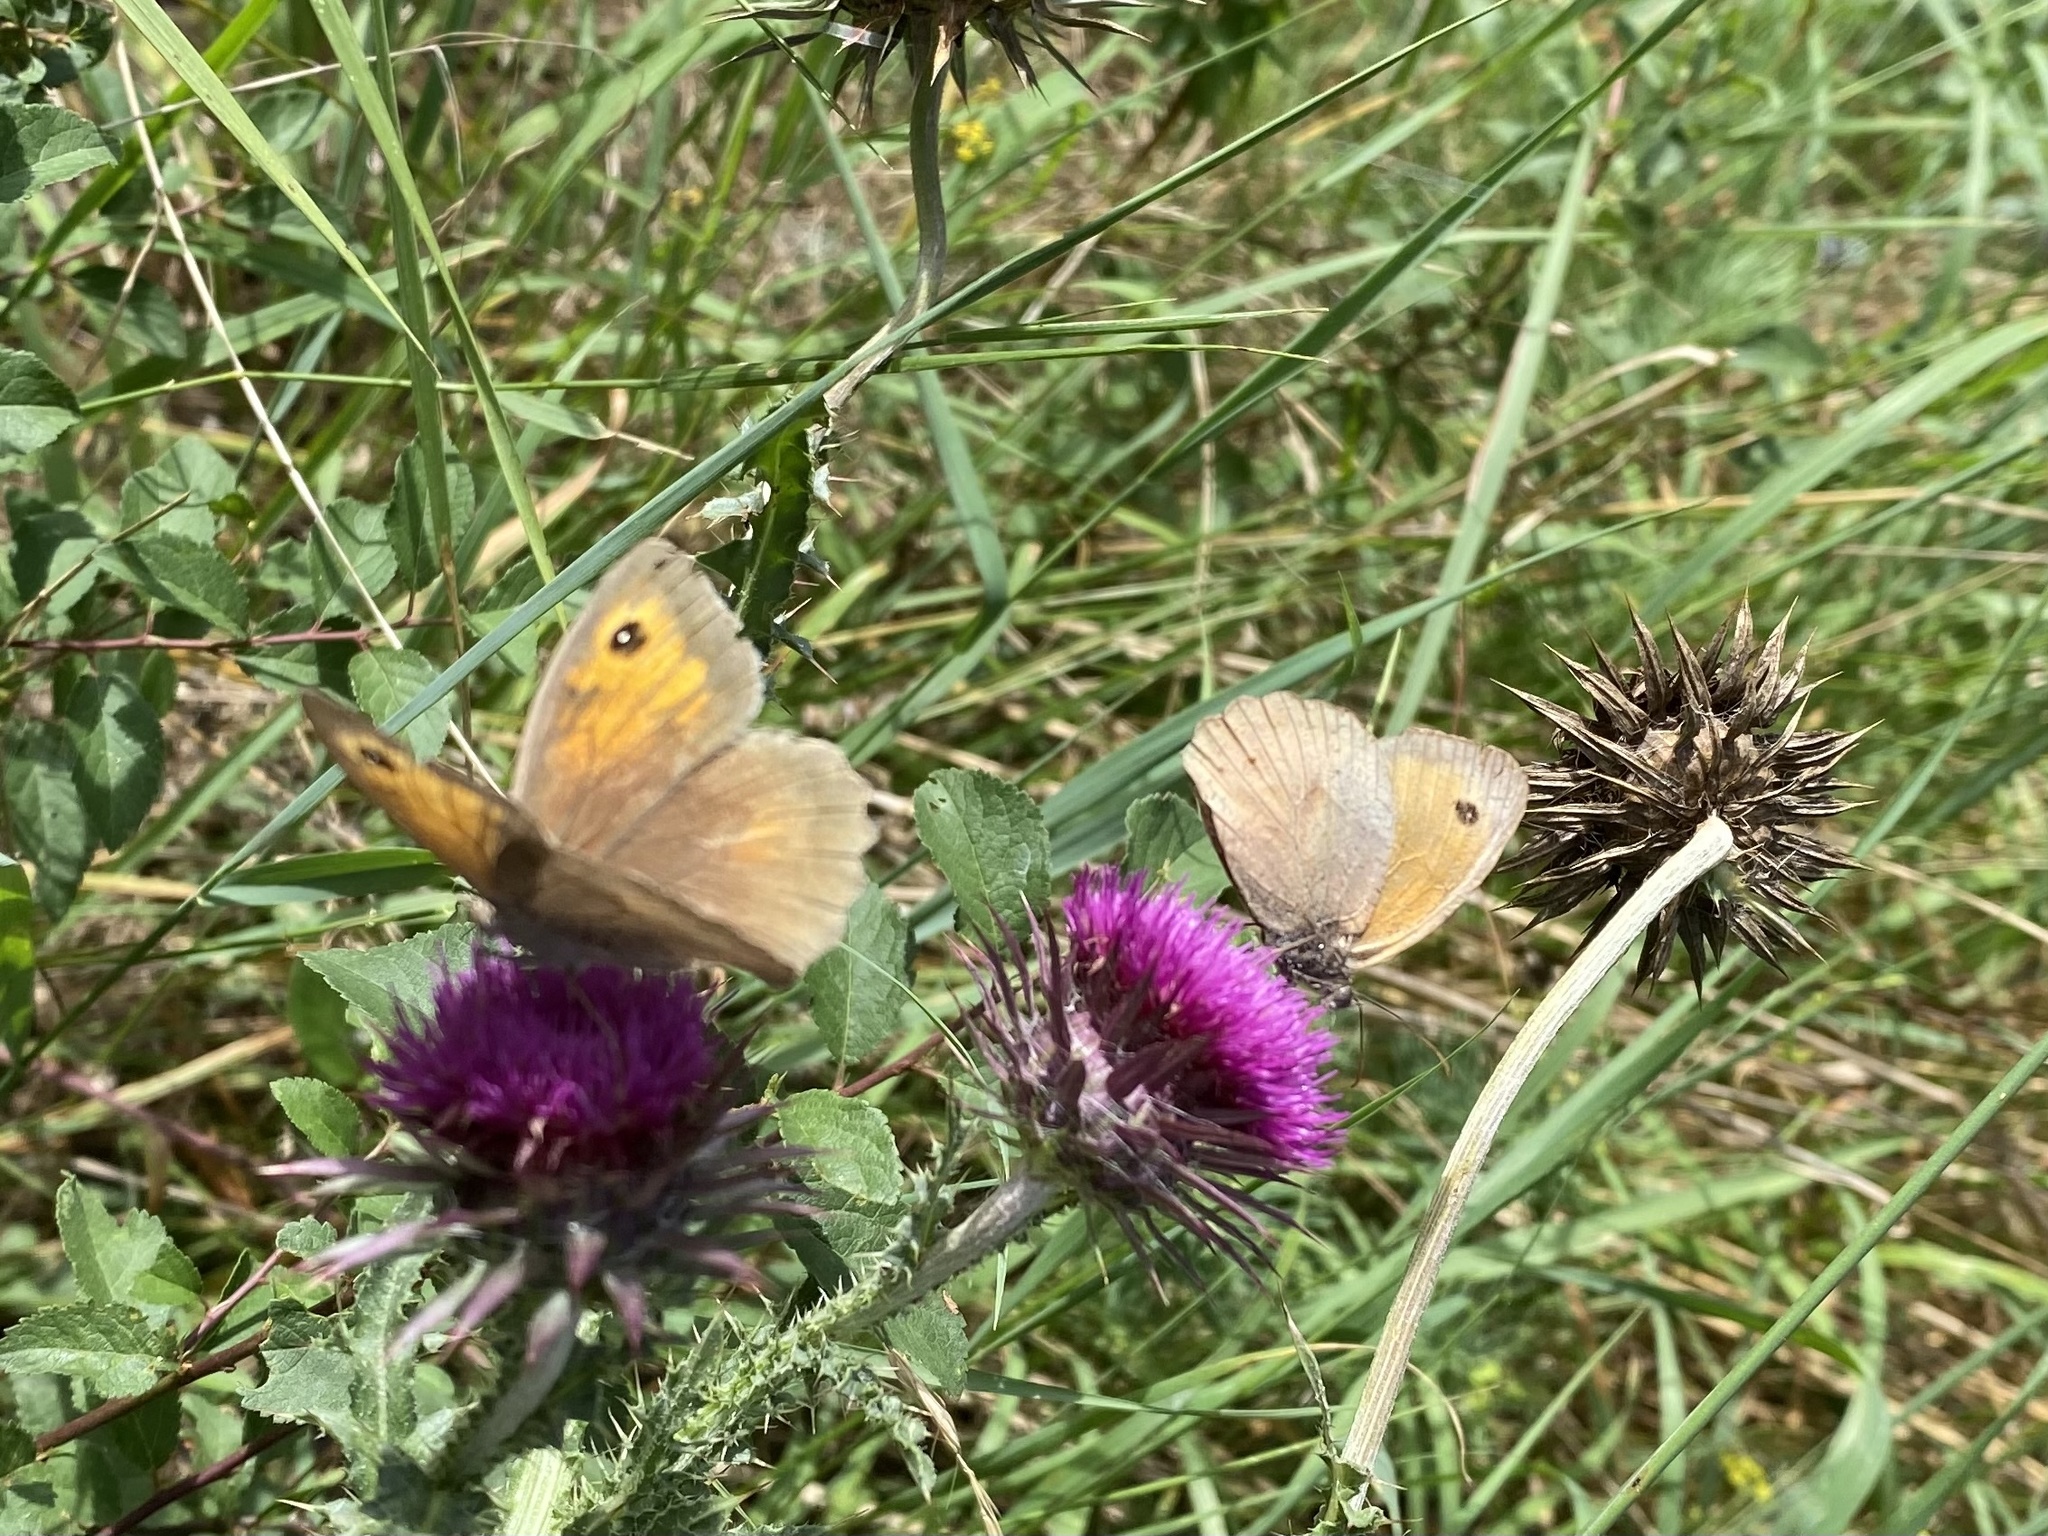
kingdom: Animalia
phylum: Arthropoda
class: Insecta
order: Lepidoptera
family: Nymphalidae
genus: Maniola
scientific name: Maniola jurtina
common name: Meadow brown
